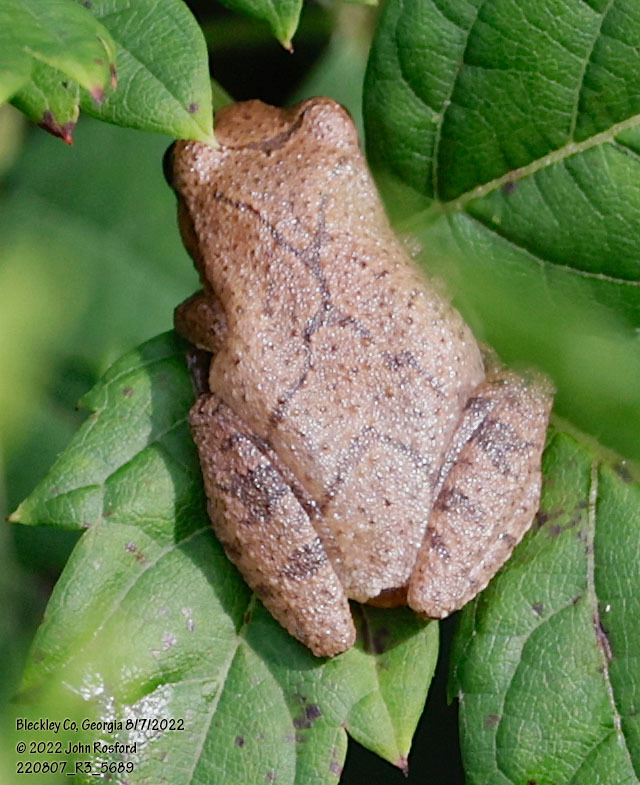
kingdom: Animalia
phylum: Chordata
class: Amphibia
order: Anura
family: Hylidae
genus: Pseudacris
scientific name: Pseudacris crucifer
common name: Spring peeper
